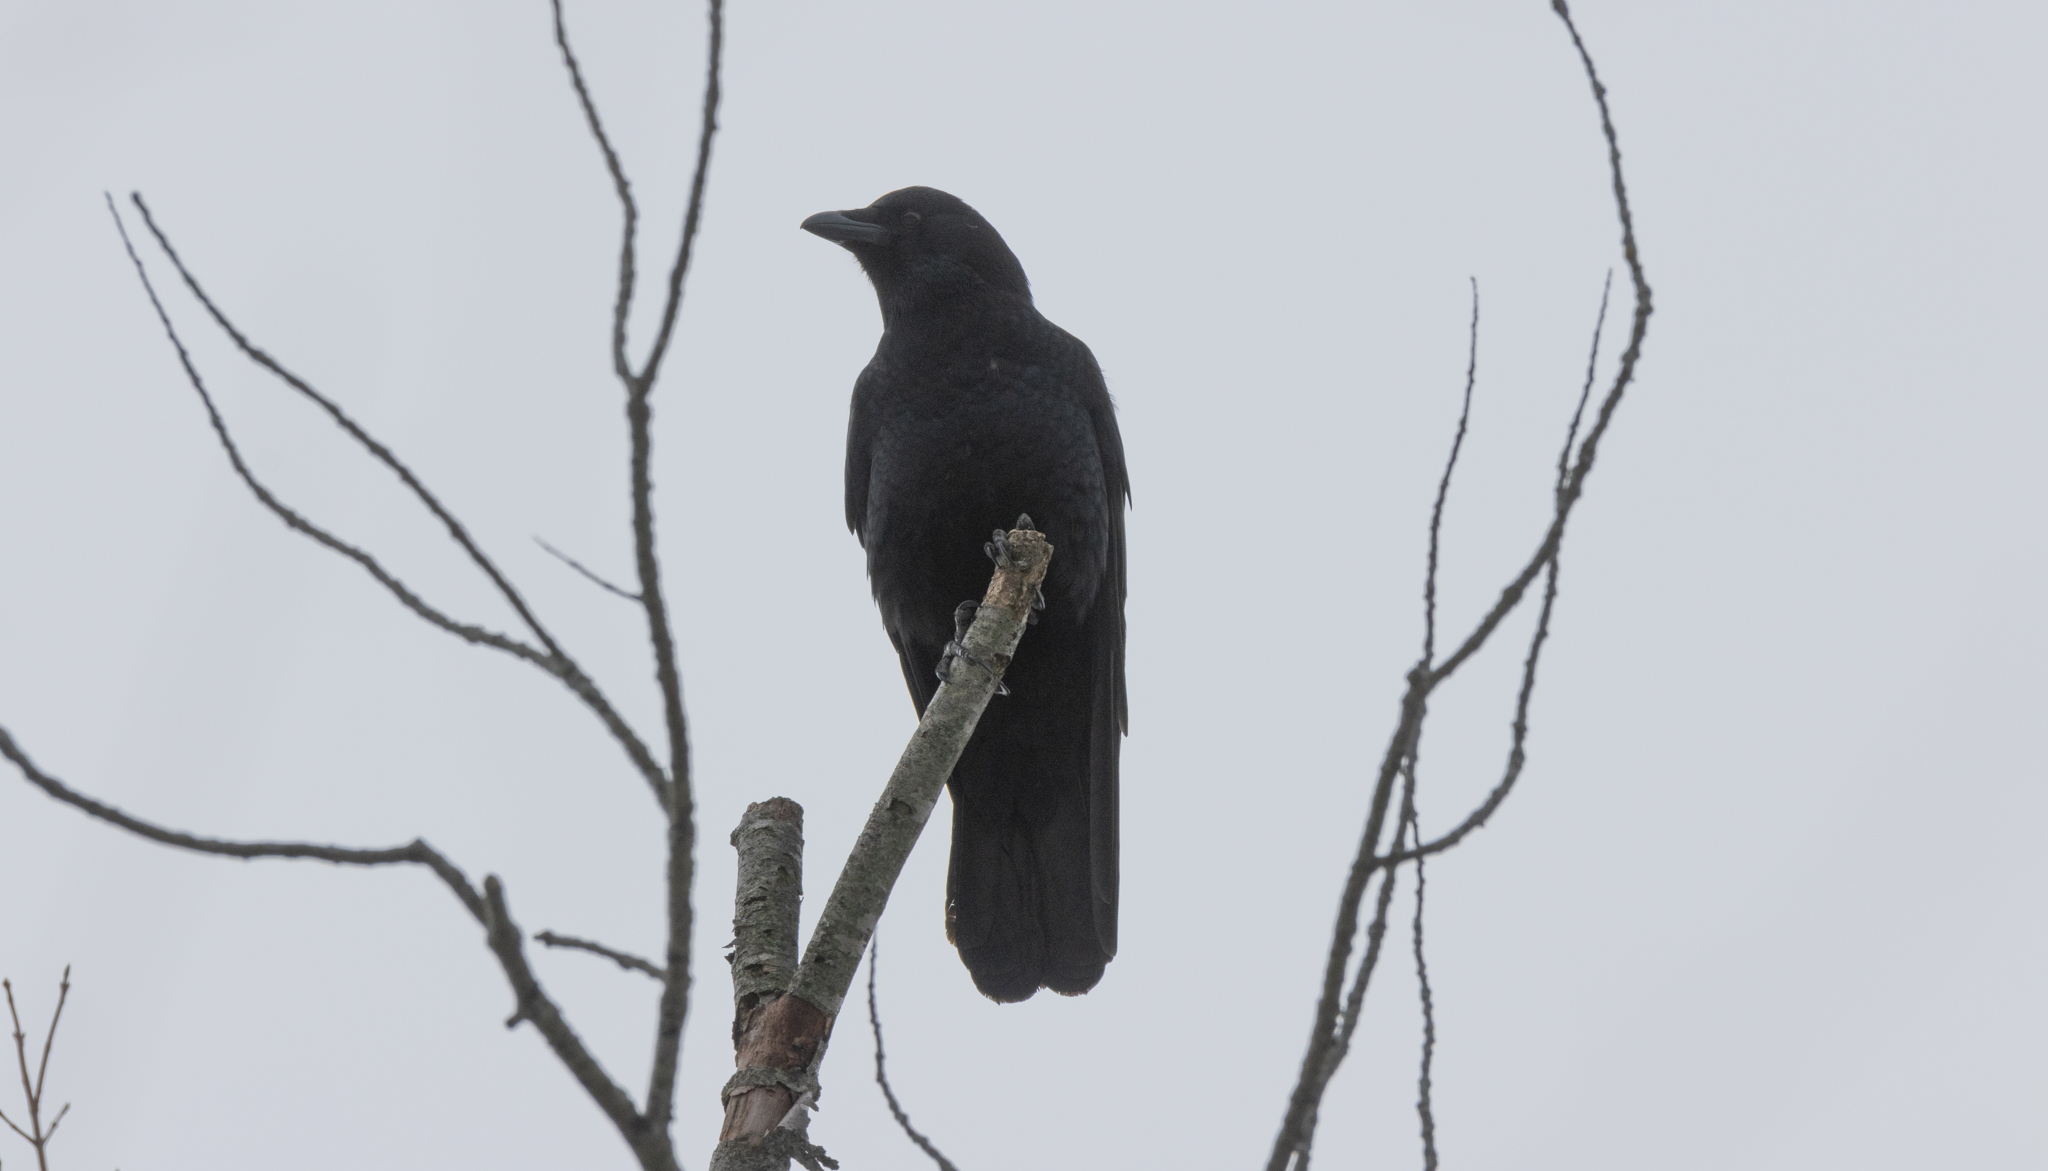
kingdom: Animalia
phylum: Chordata
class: Aves
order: Passeriformes
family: Corvidae
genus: Corvus
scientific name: Corvus brachyrhynchos
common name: American crow
